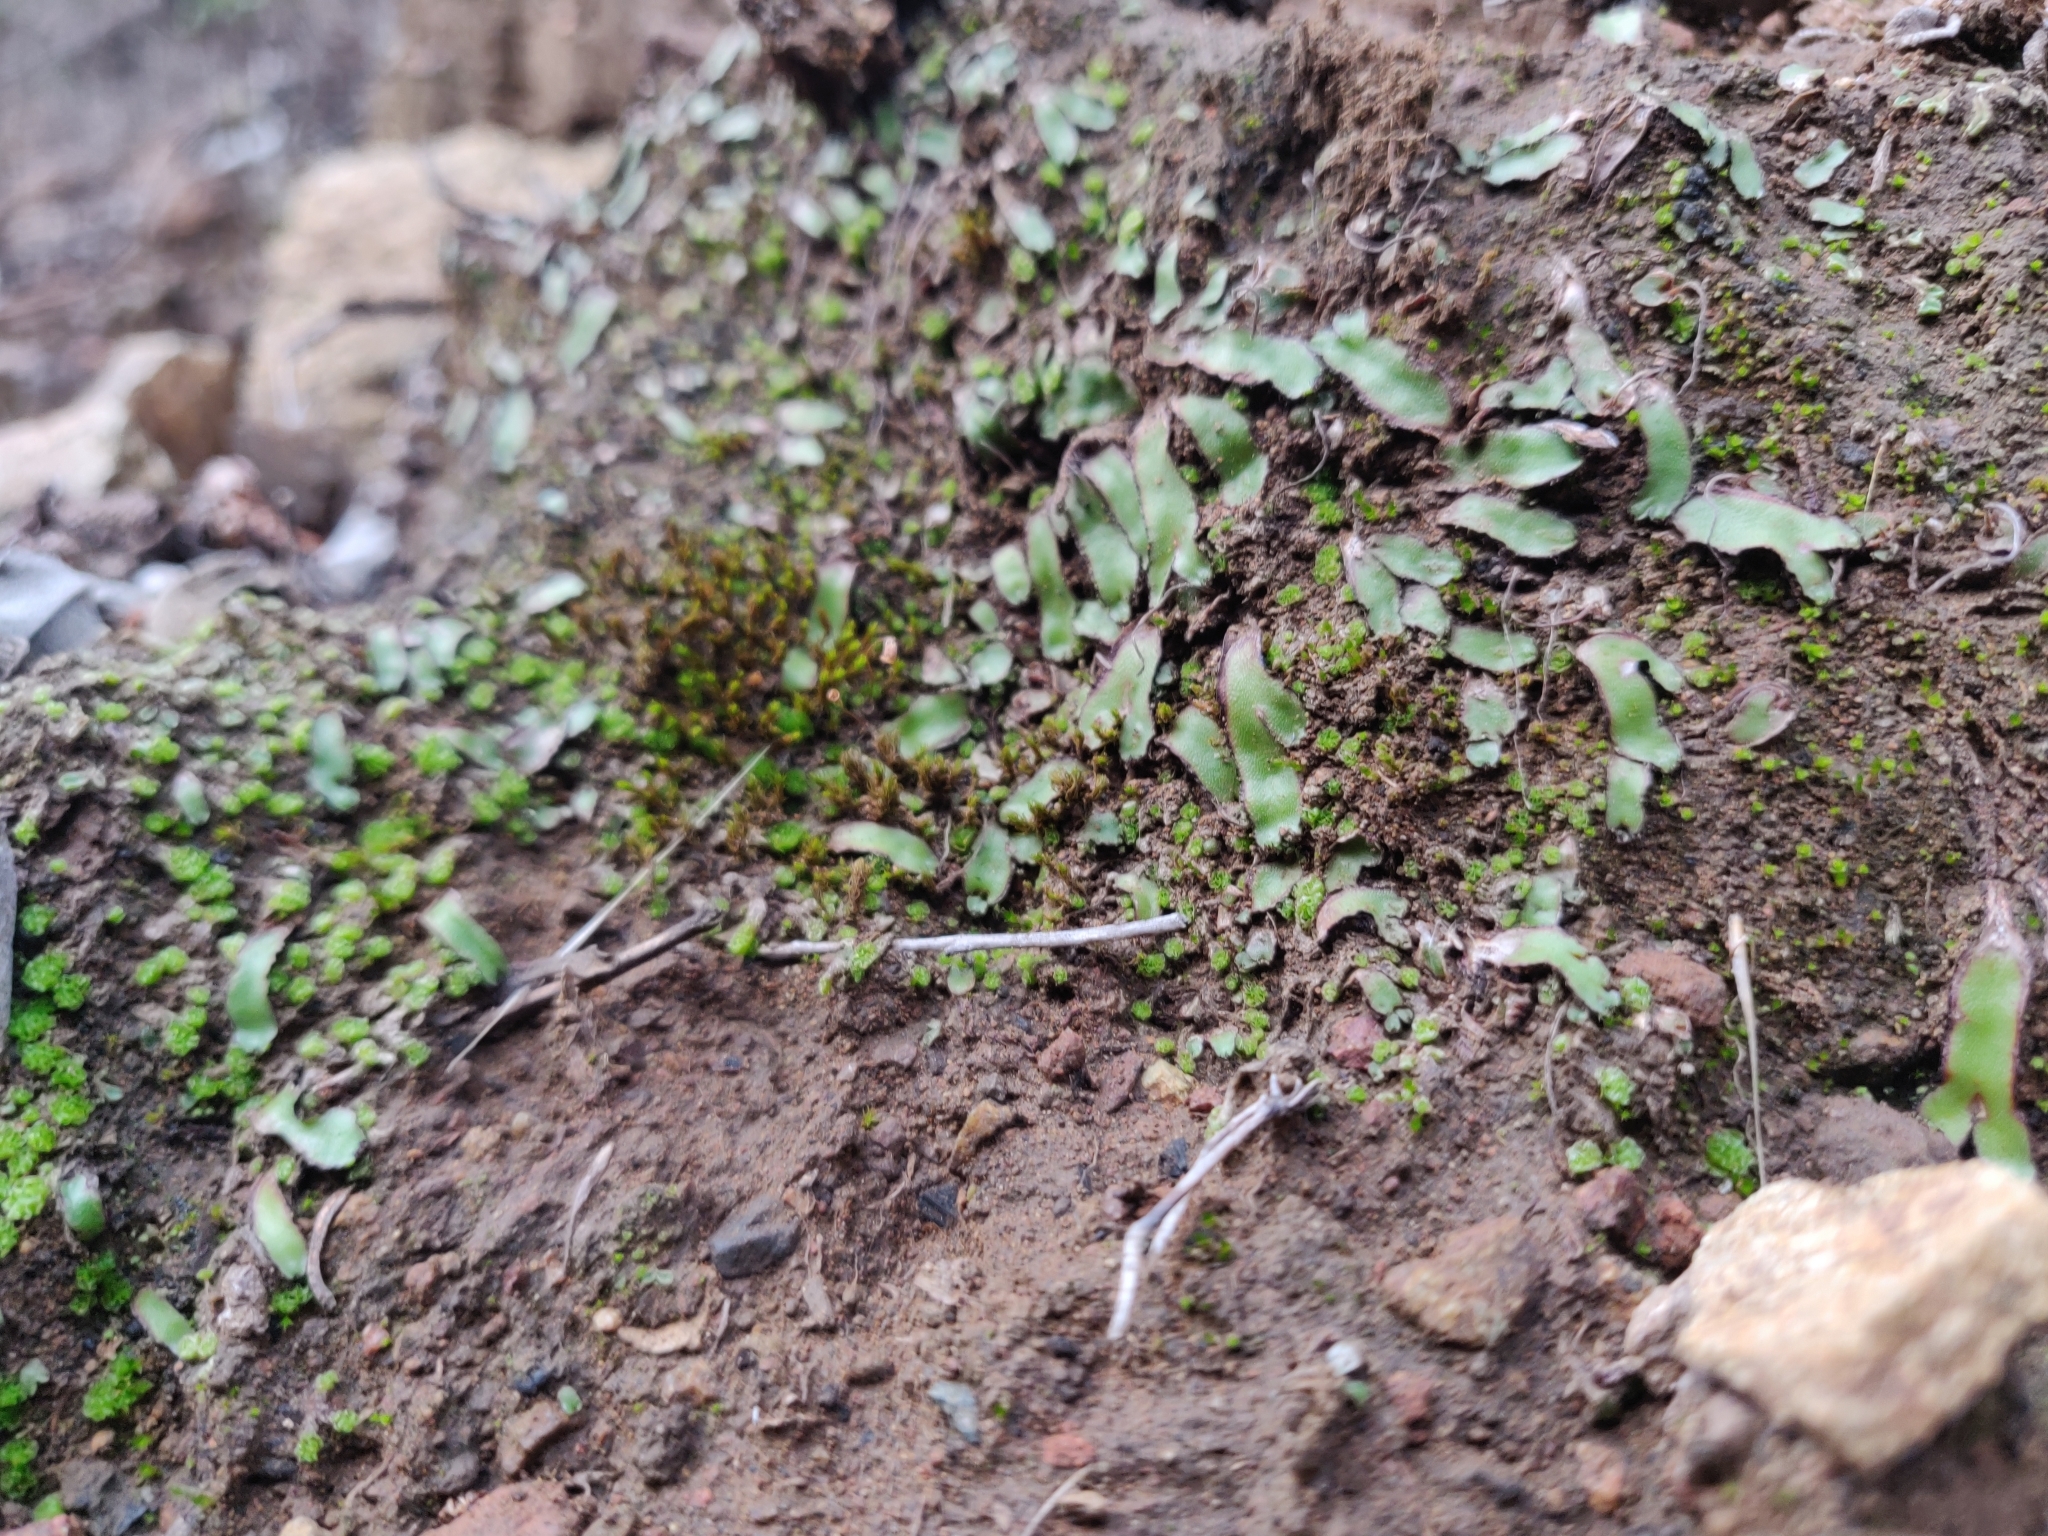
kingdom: Plantae
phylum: Marchantiophyta
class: Marchantiopsida
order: Marchantiales
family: Aytoniaceae
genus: Mannia
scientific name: Mannia androgyna
